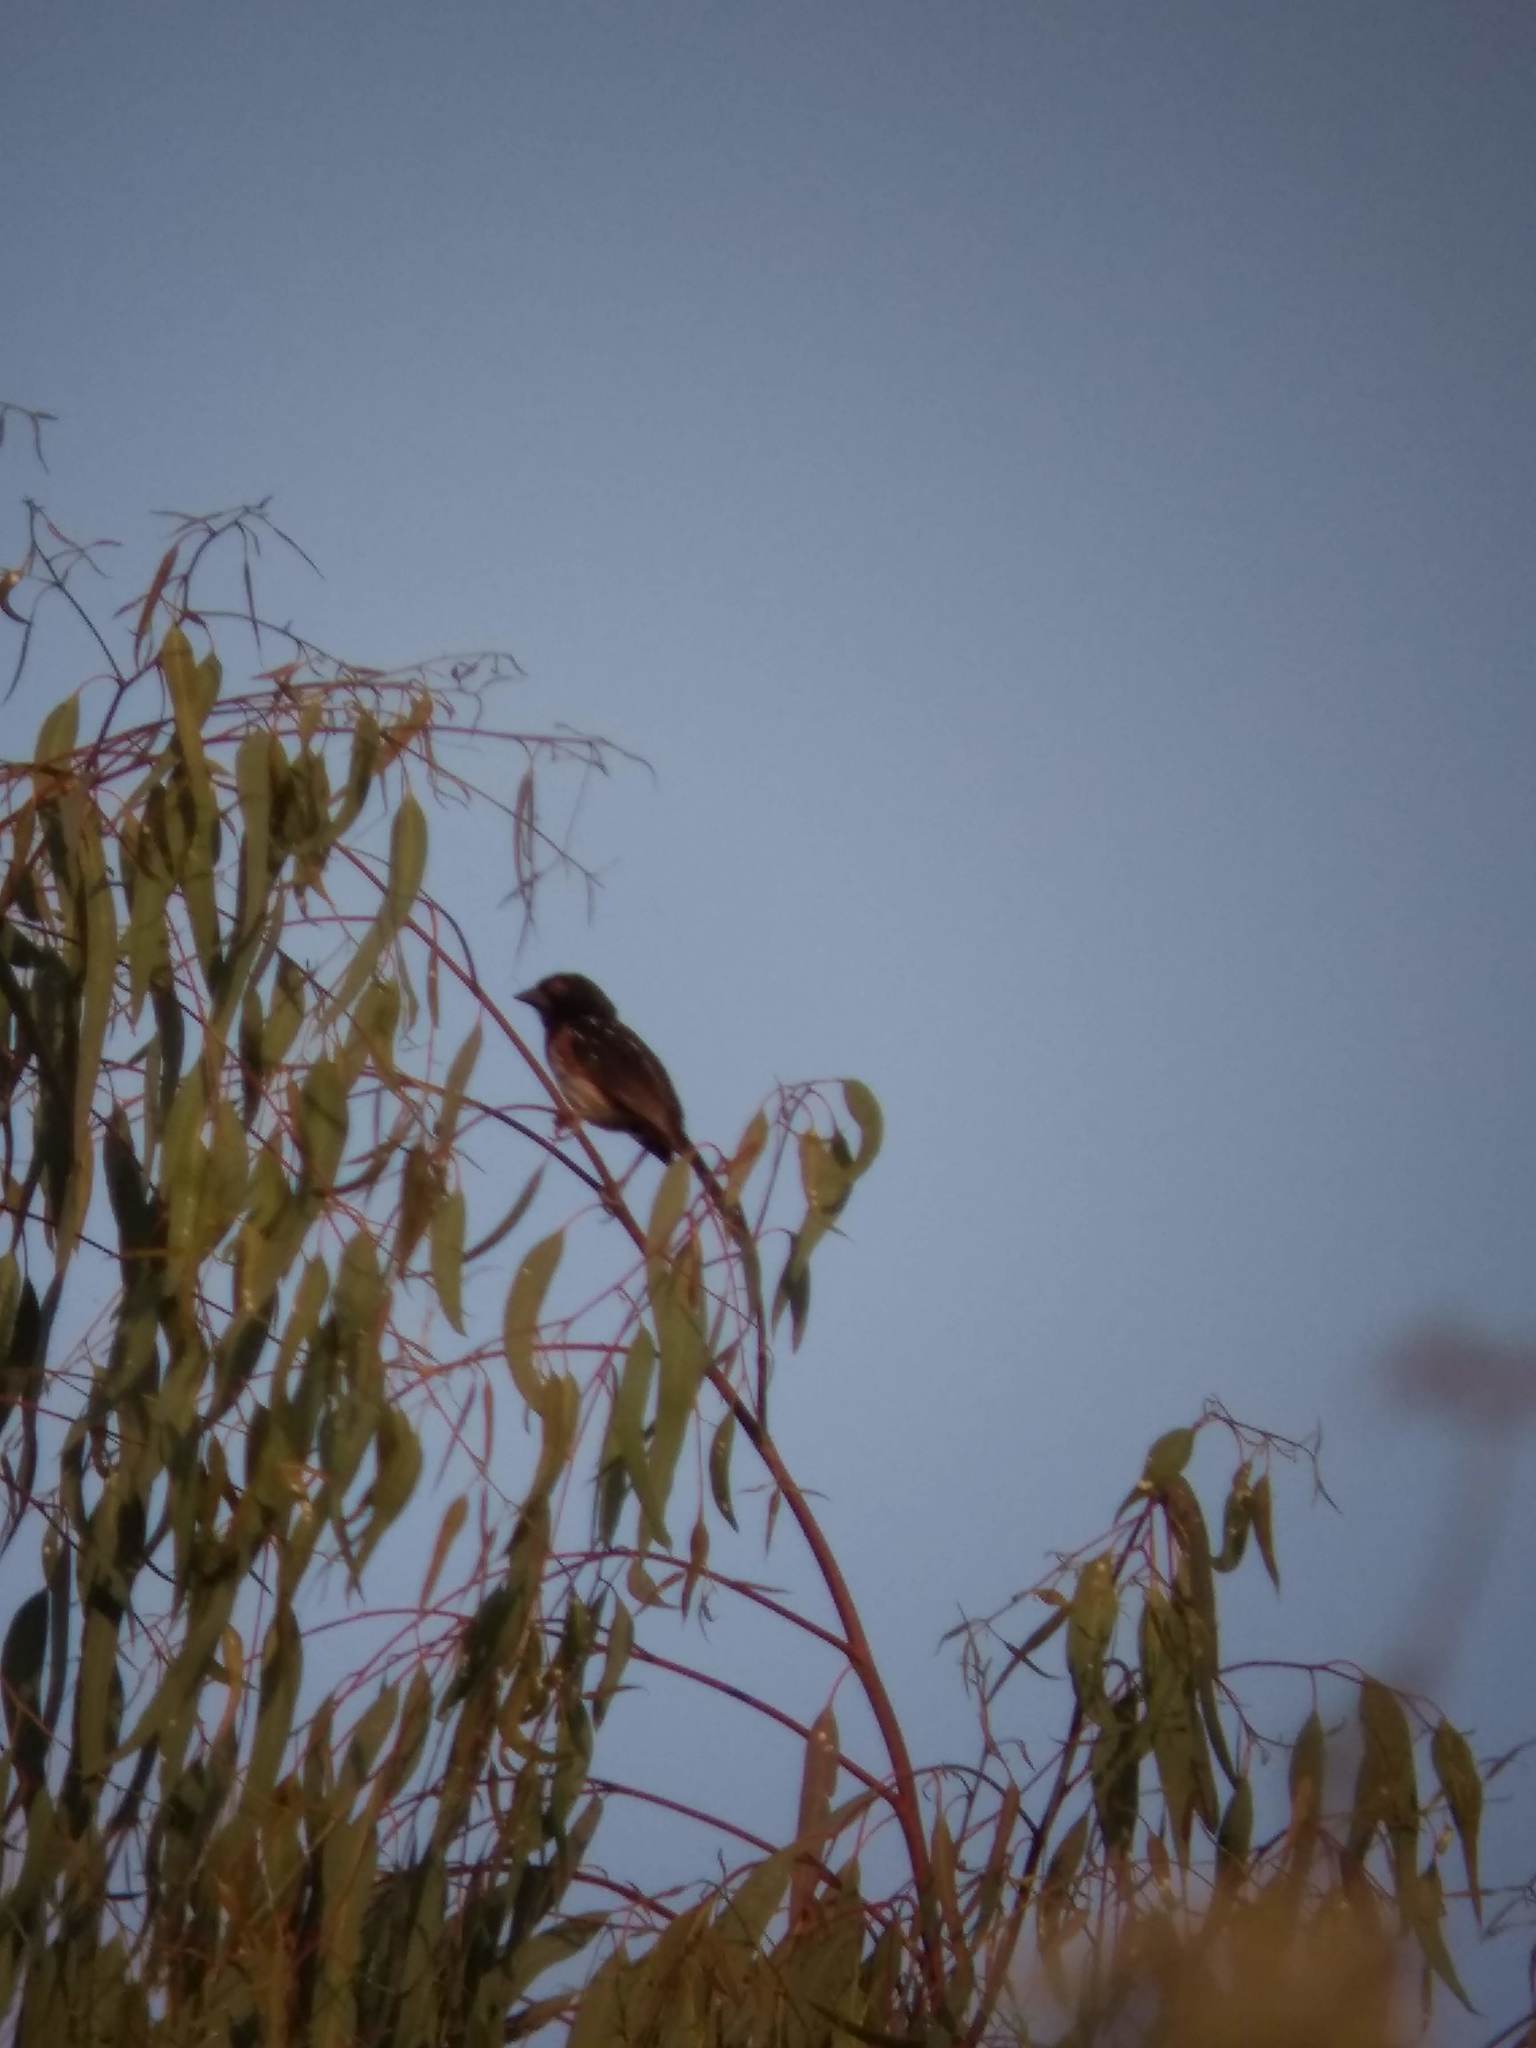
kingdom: Animalia
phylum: Chordata
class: Aves
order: Passeriformes
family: Passerellidae
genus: Pipilo
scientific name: Pipilo maculatus
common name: Spotted towhee
